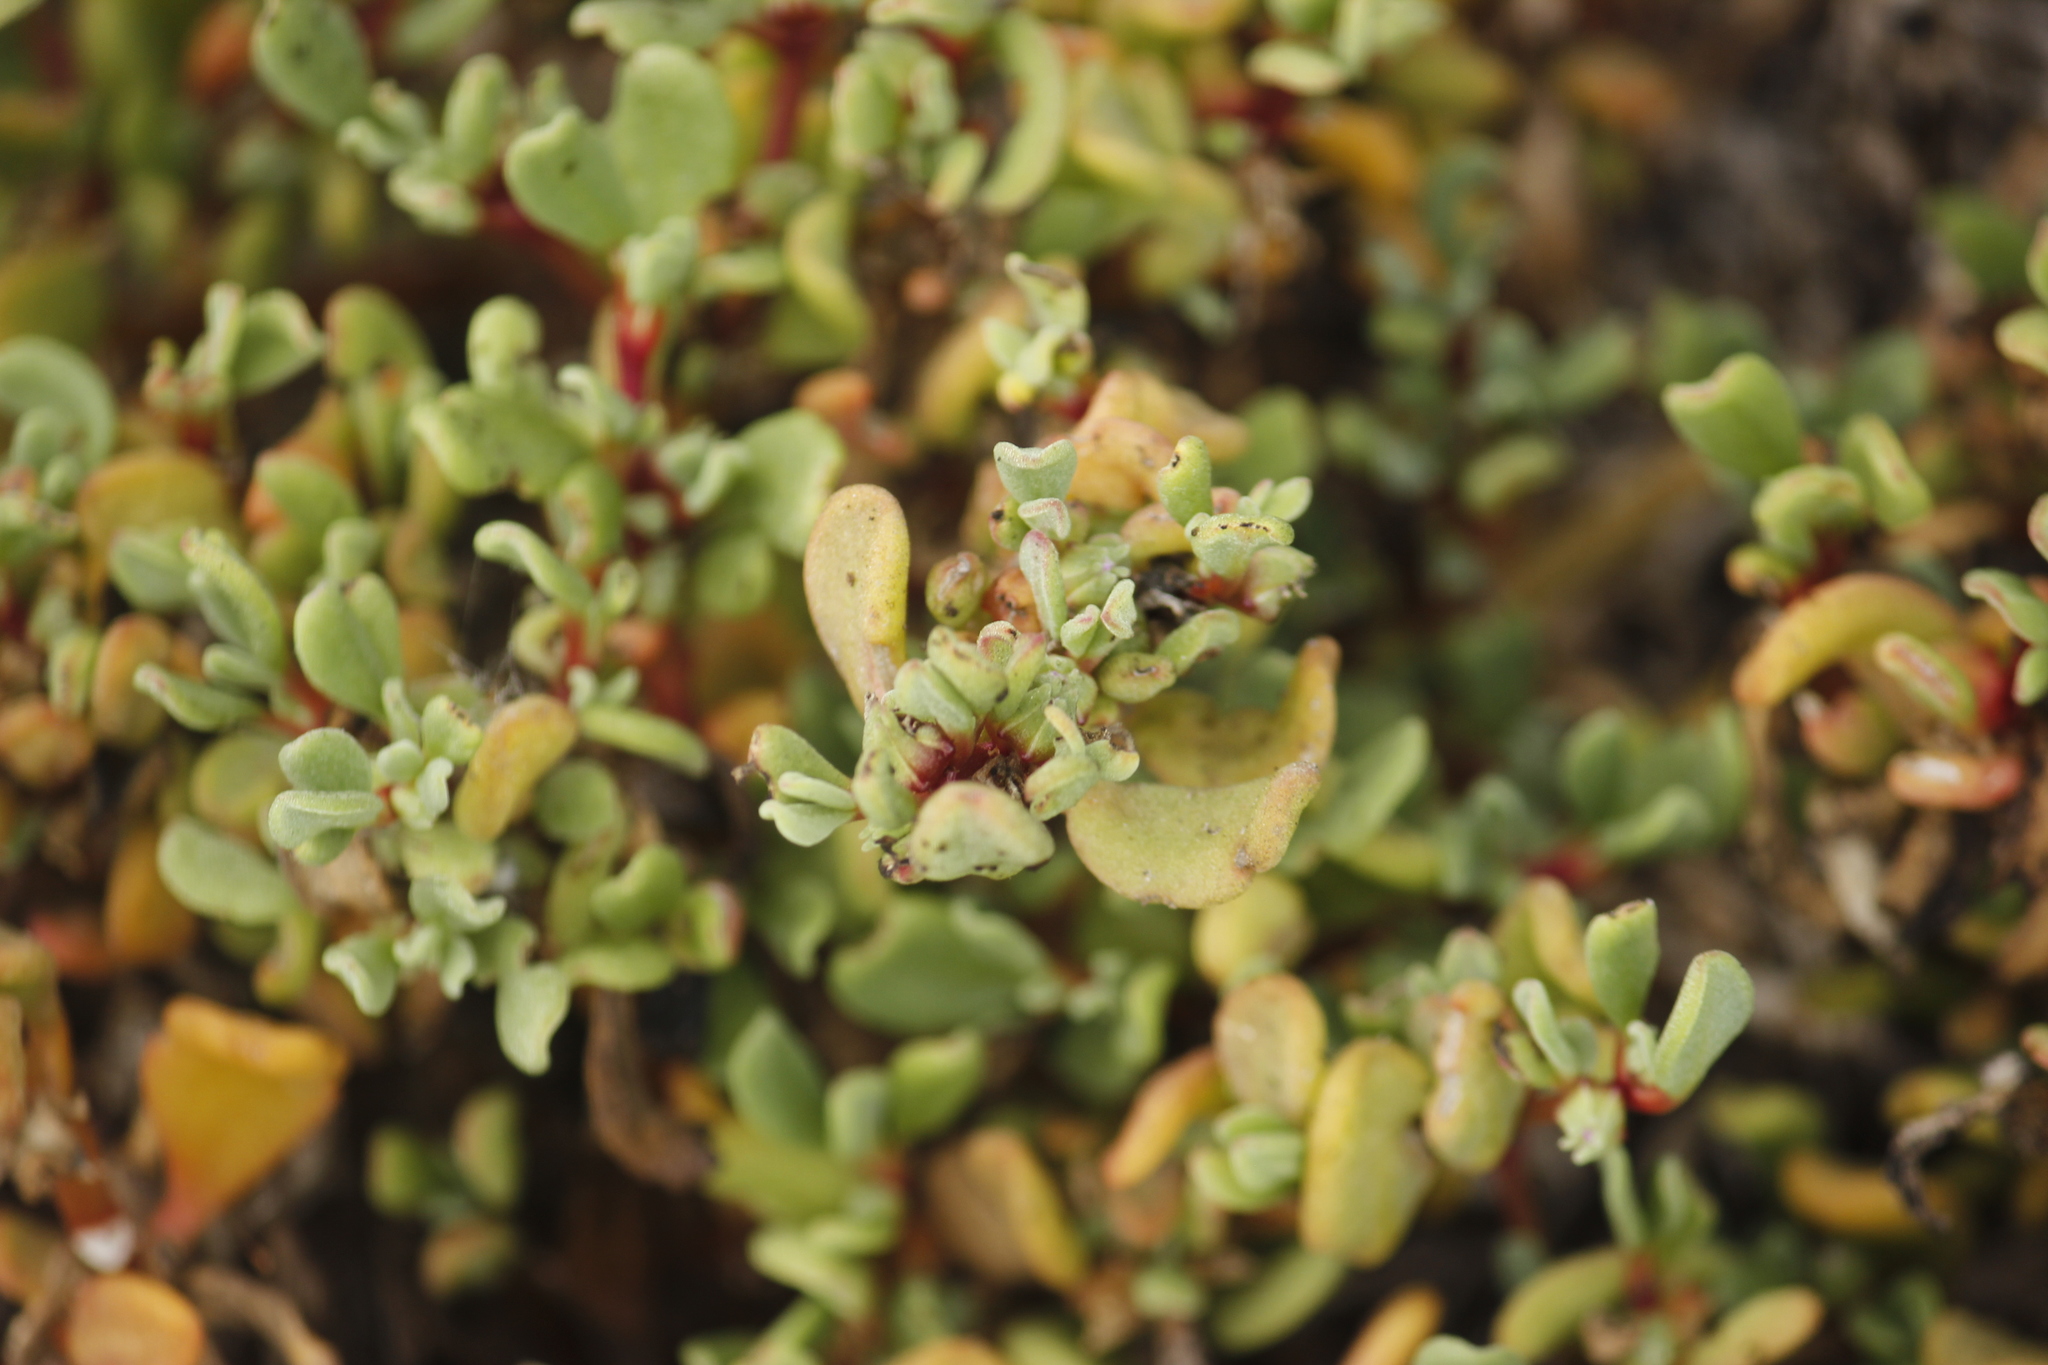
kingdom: Plantae
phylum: Tracheophyta
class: Magnoliopsida
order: Caryophyllales
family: Aizoaceae
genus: Sesuvium
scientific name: Sesuvium portulacastrum
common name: Sea-purslane
